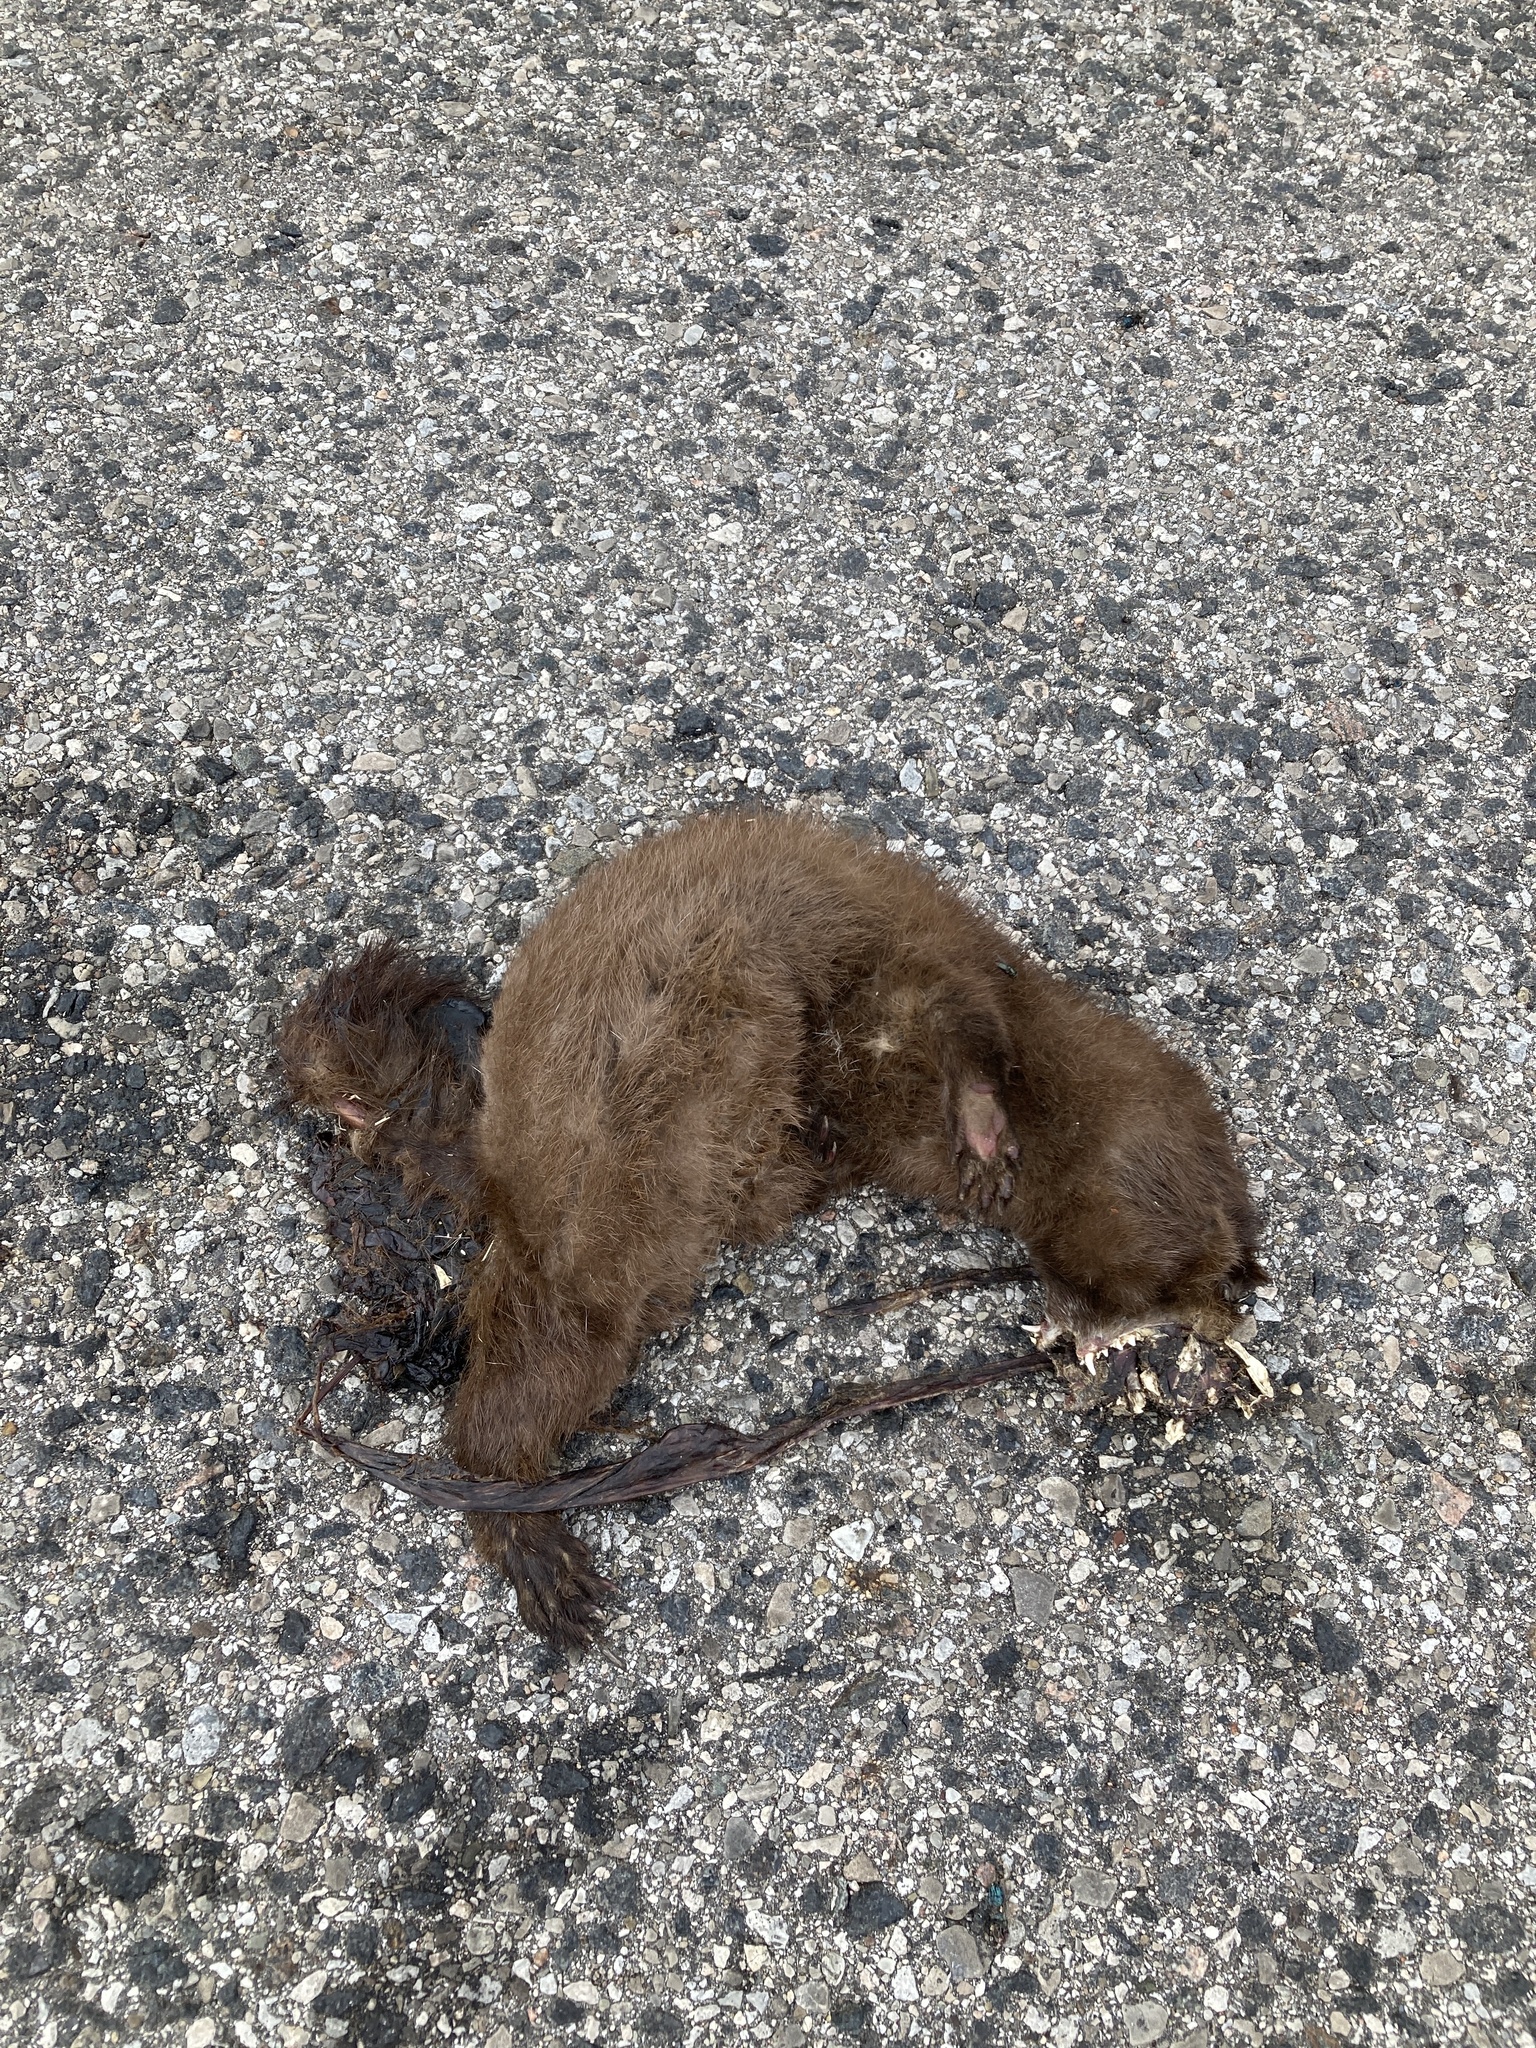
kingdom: Animalia
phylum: Chordata
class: Mammalia
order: Carnivora
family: Mustelidae
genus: Mustela
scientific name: Mustela
